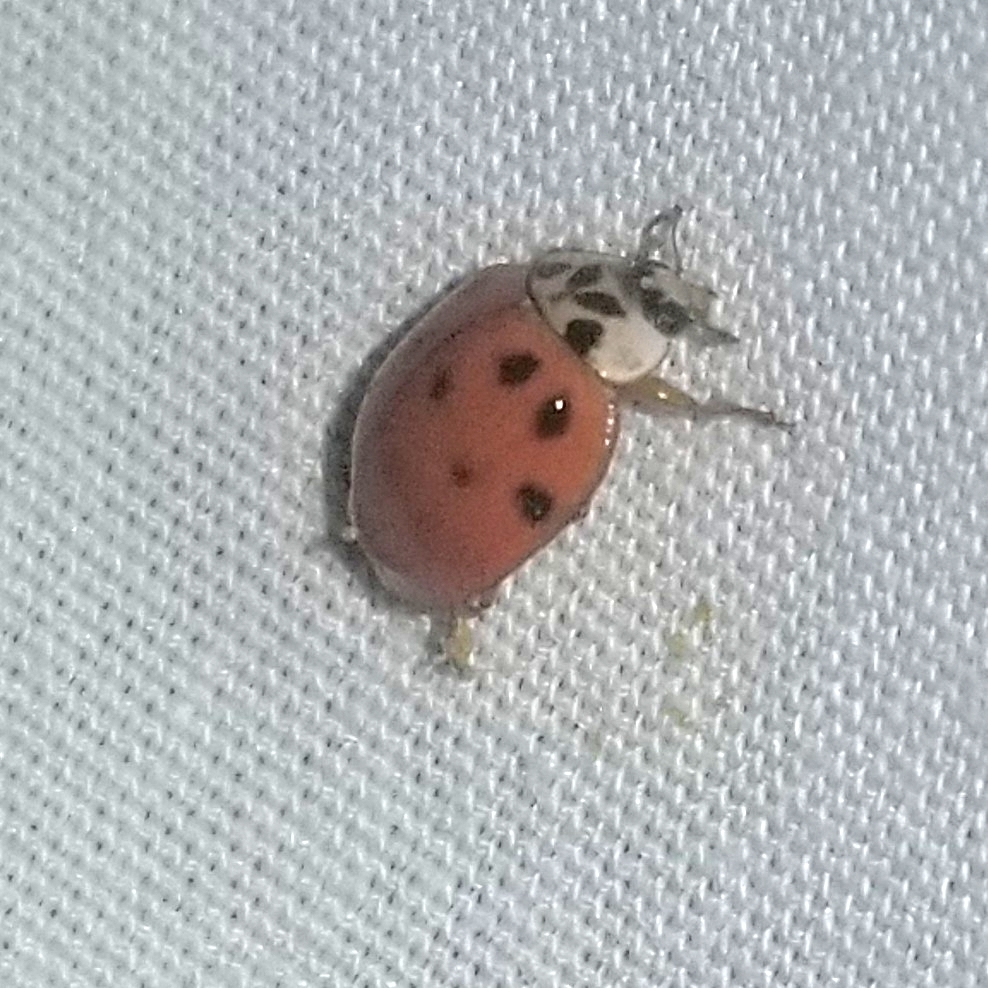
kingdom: Animalia
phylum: Arthropoda
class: Insecta
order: Coleoptera
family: Coccinellidae
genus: Harmonia
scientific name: Harmonia axyridis
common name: Harlequin ladybird
